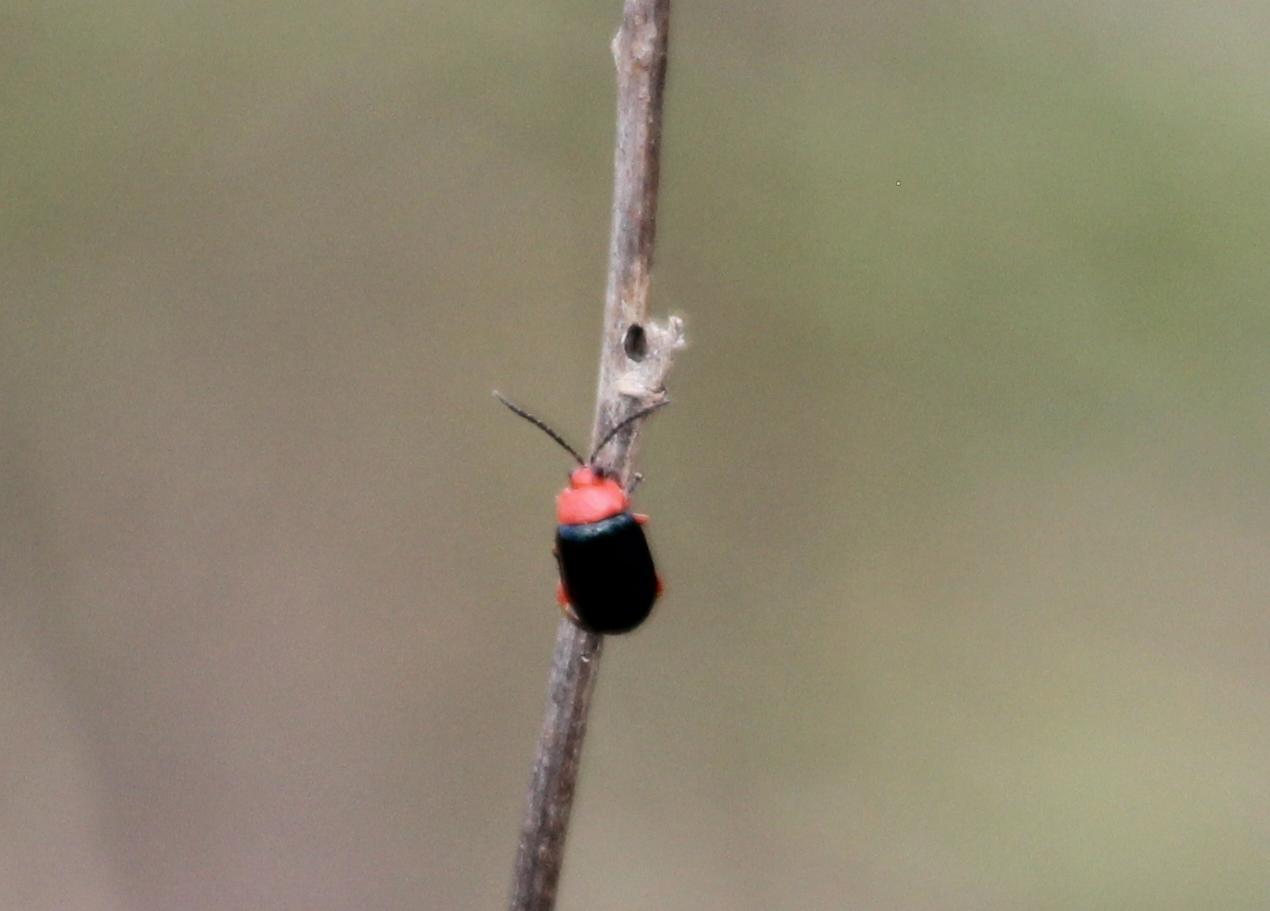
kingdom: Animalia
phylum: Arthropoda
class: Insecta
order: Coleoptera
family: Chrysomelidae
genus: Asphaera
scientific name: Asphaera lustrans
